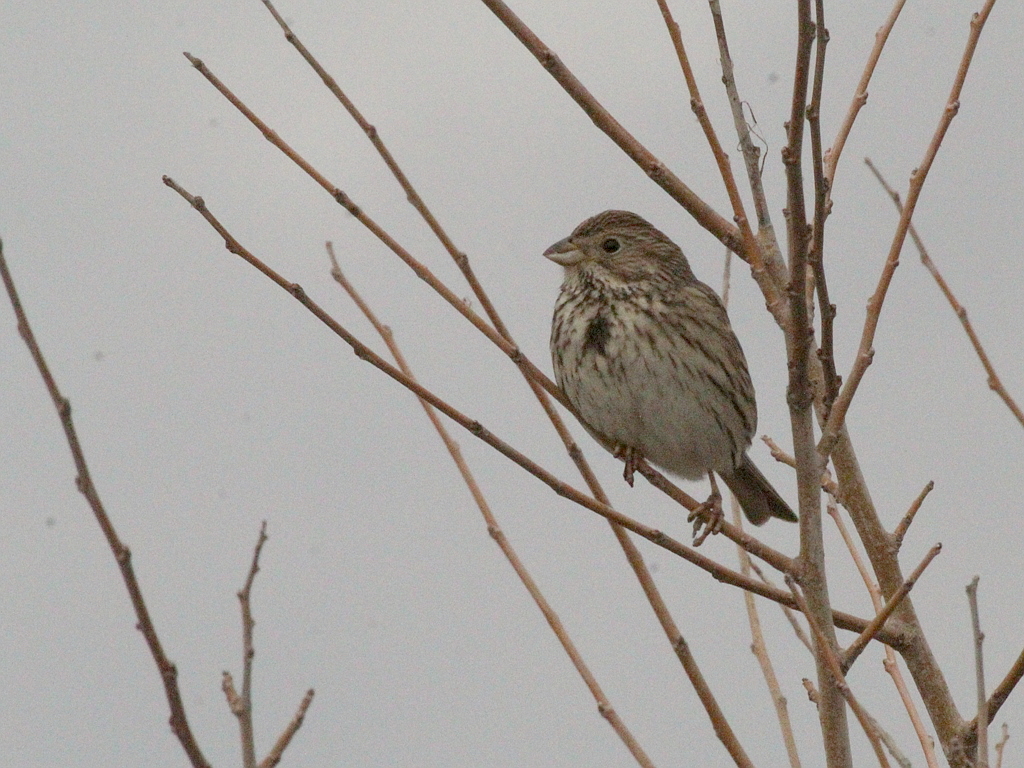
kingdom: Animalia
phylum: Chordata
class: Aves
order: Passeriformes
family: Emberizidae
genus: Emberiza
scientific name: Emberiza calandra
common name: Corn bunting
